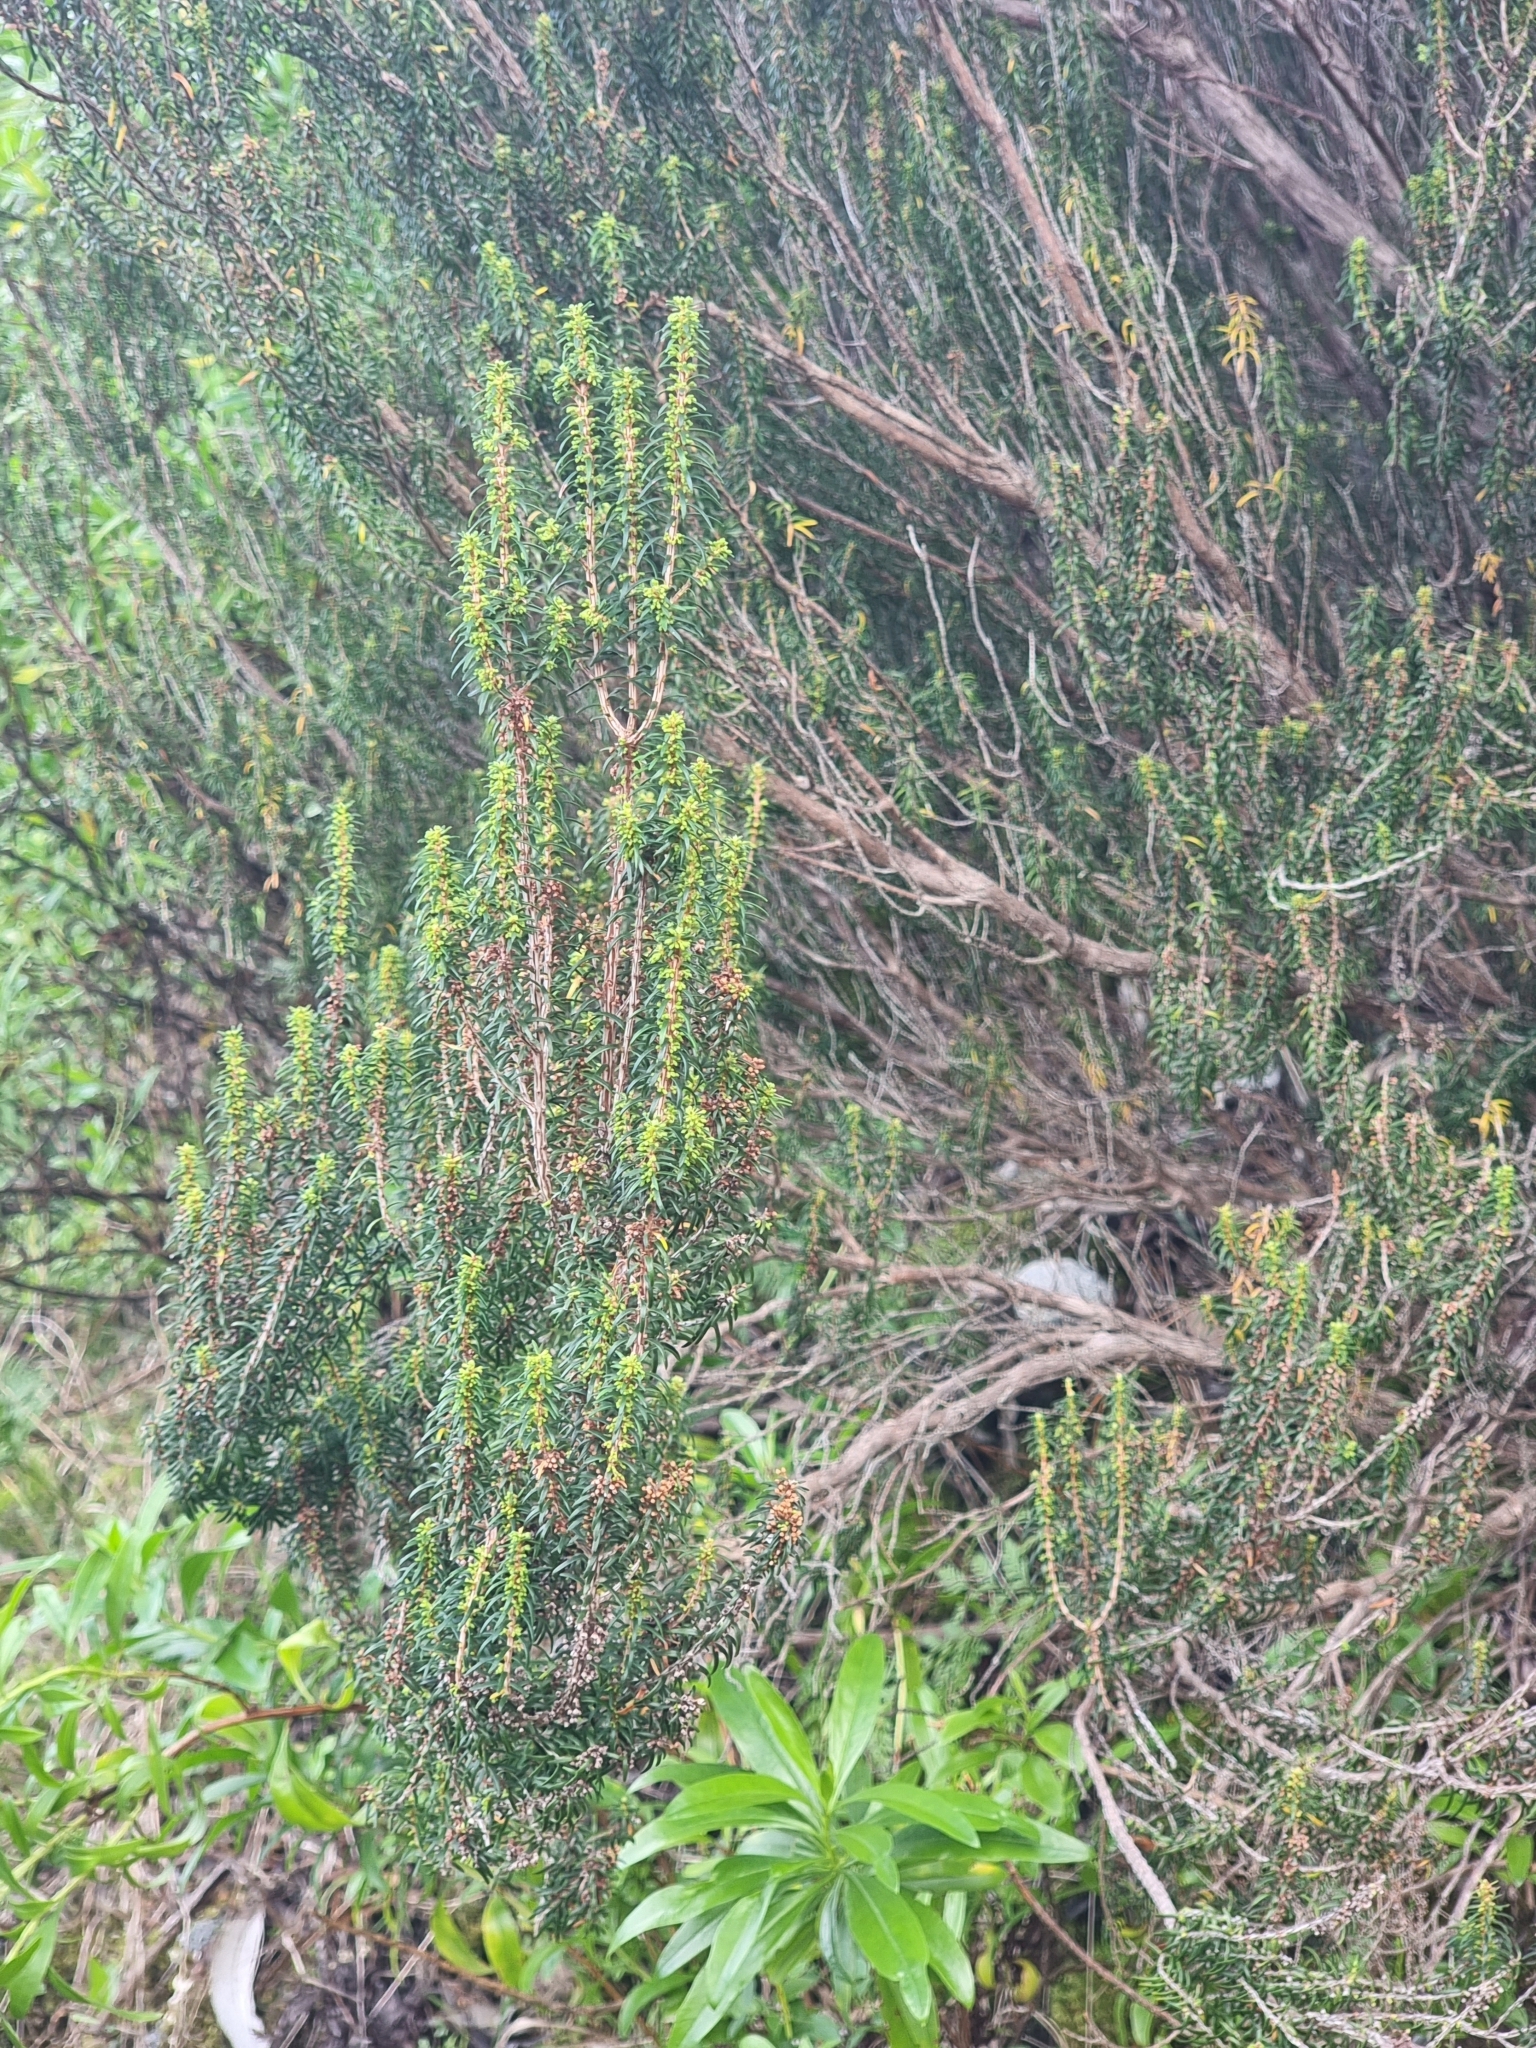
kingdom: Plantae
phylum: Tracheophyta
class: Magnoliopsida
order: Ericales
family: Ericaceae
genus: Erica
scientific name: Erica platycodon
